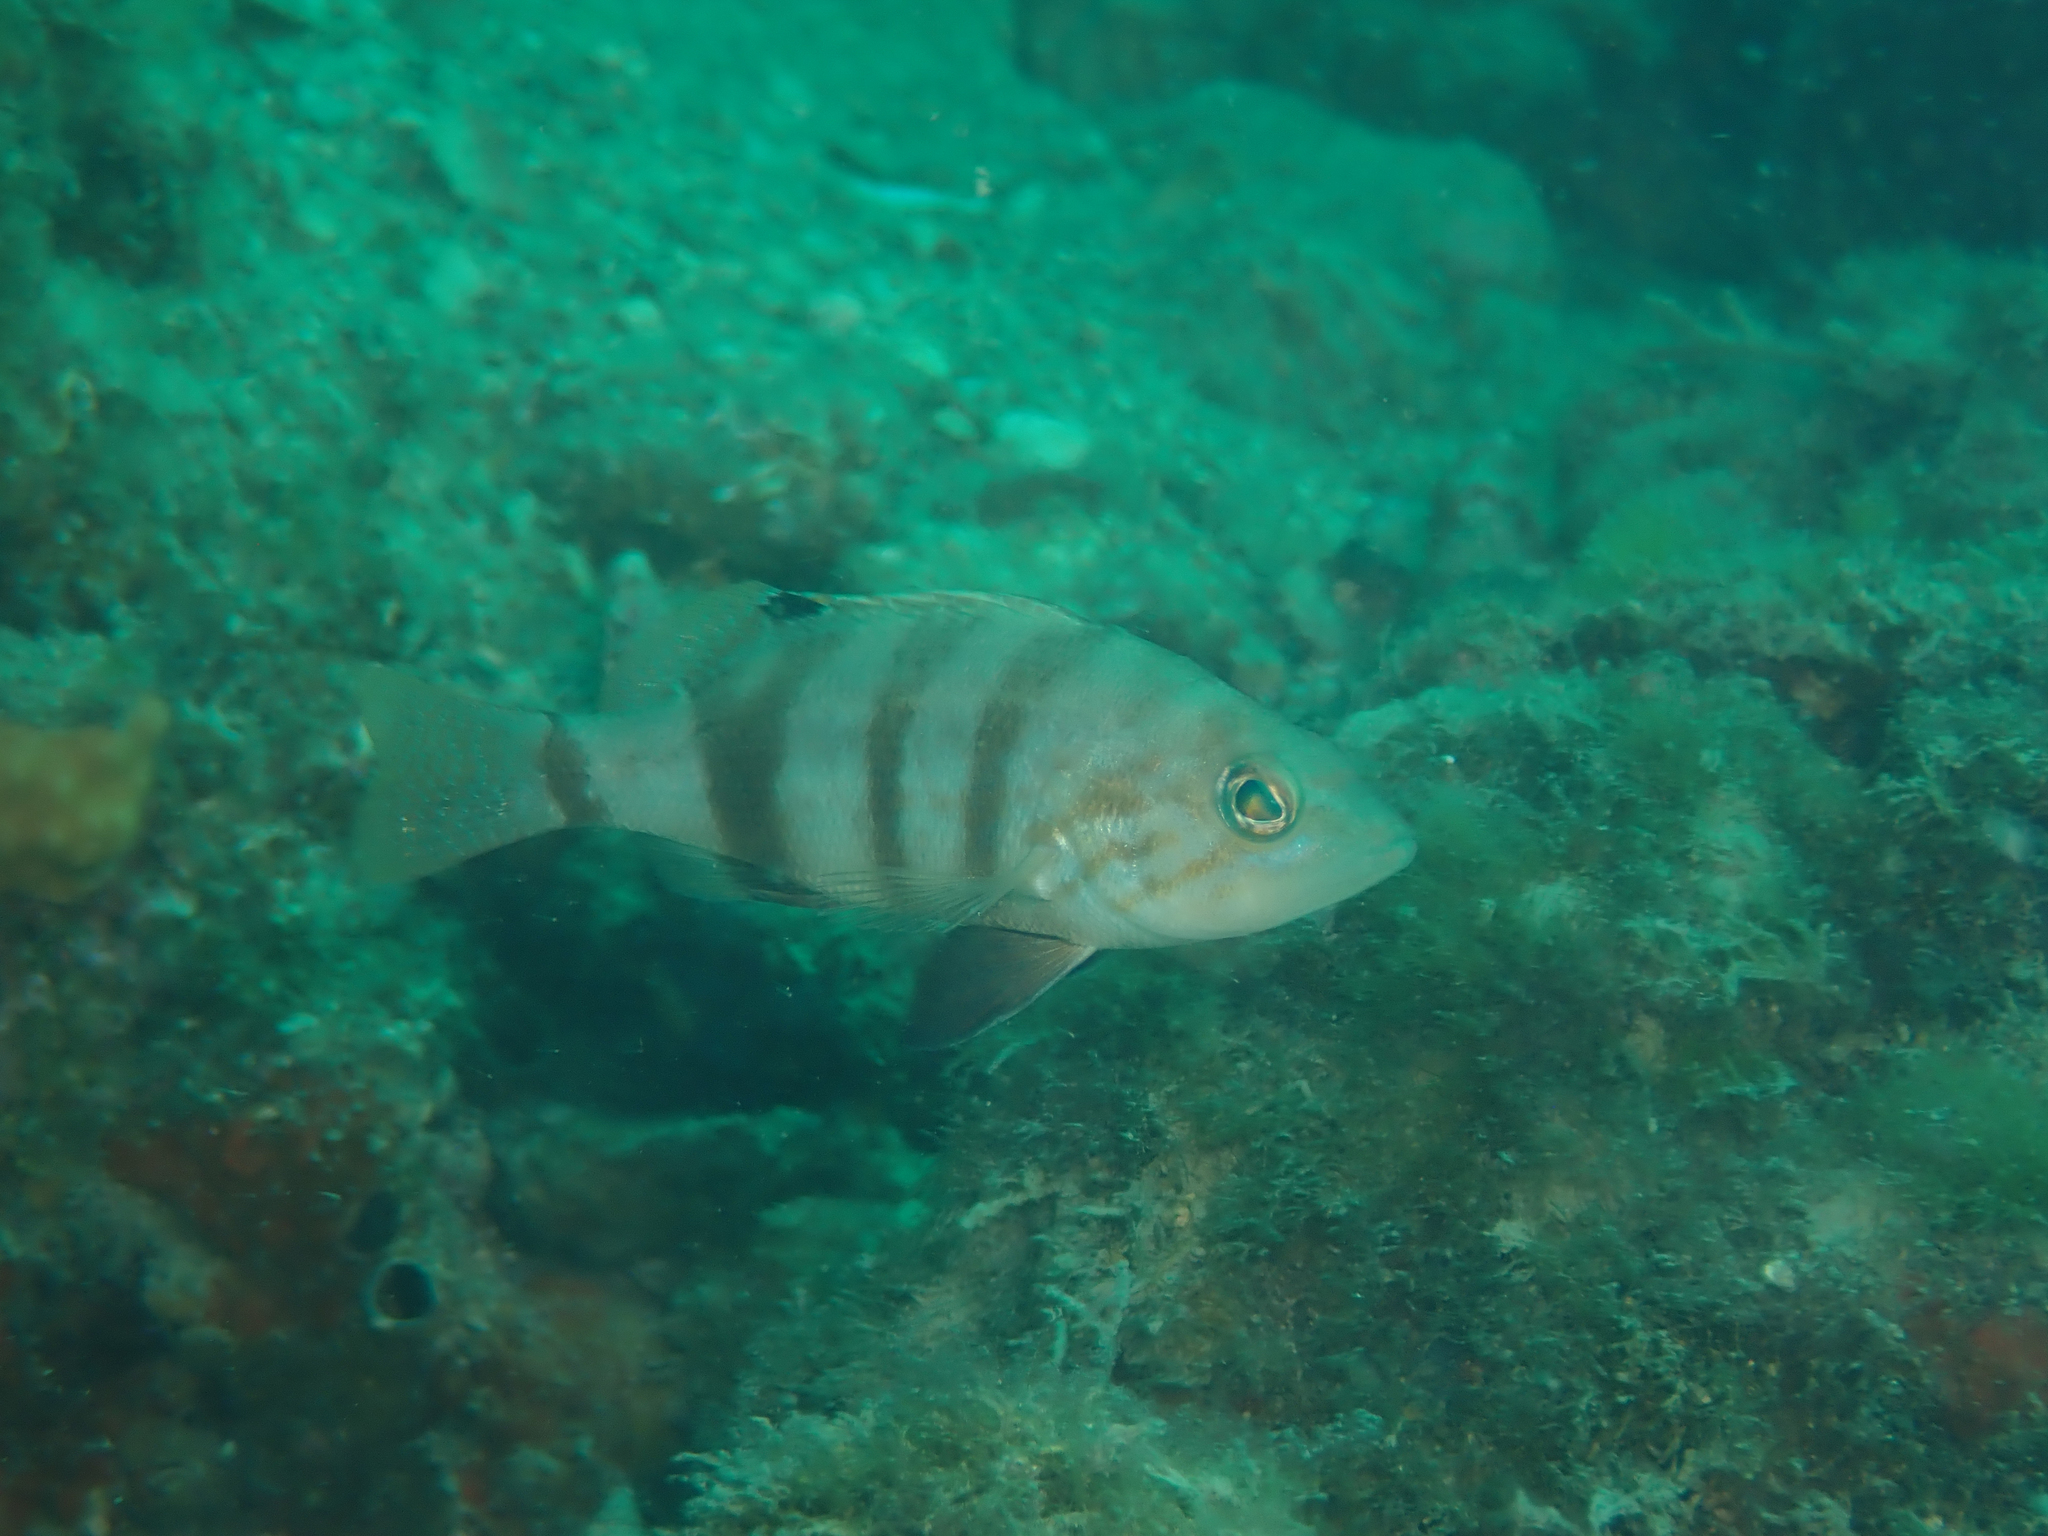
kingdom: Animalia
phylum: Chordata
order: Perciformes
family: Serranidae
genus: Serranus
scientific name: Serranus hepatus
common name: Brown comber
